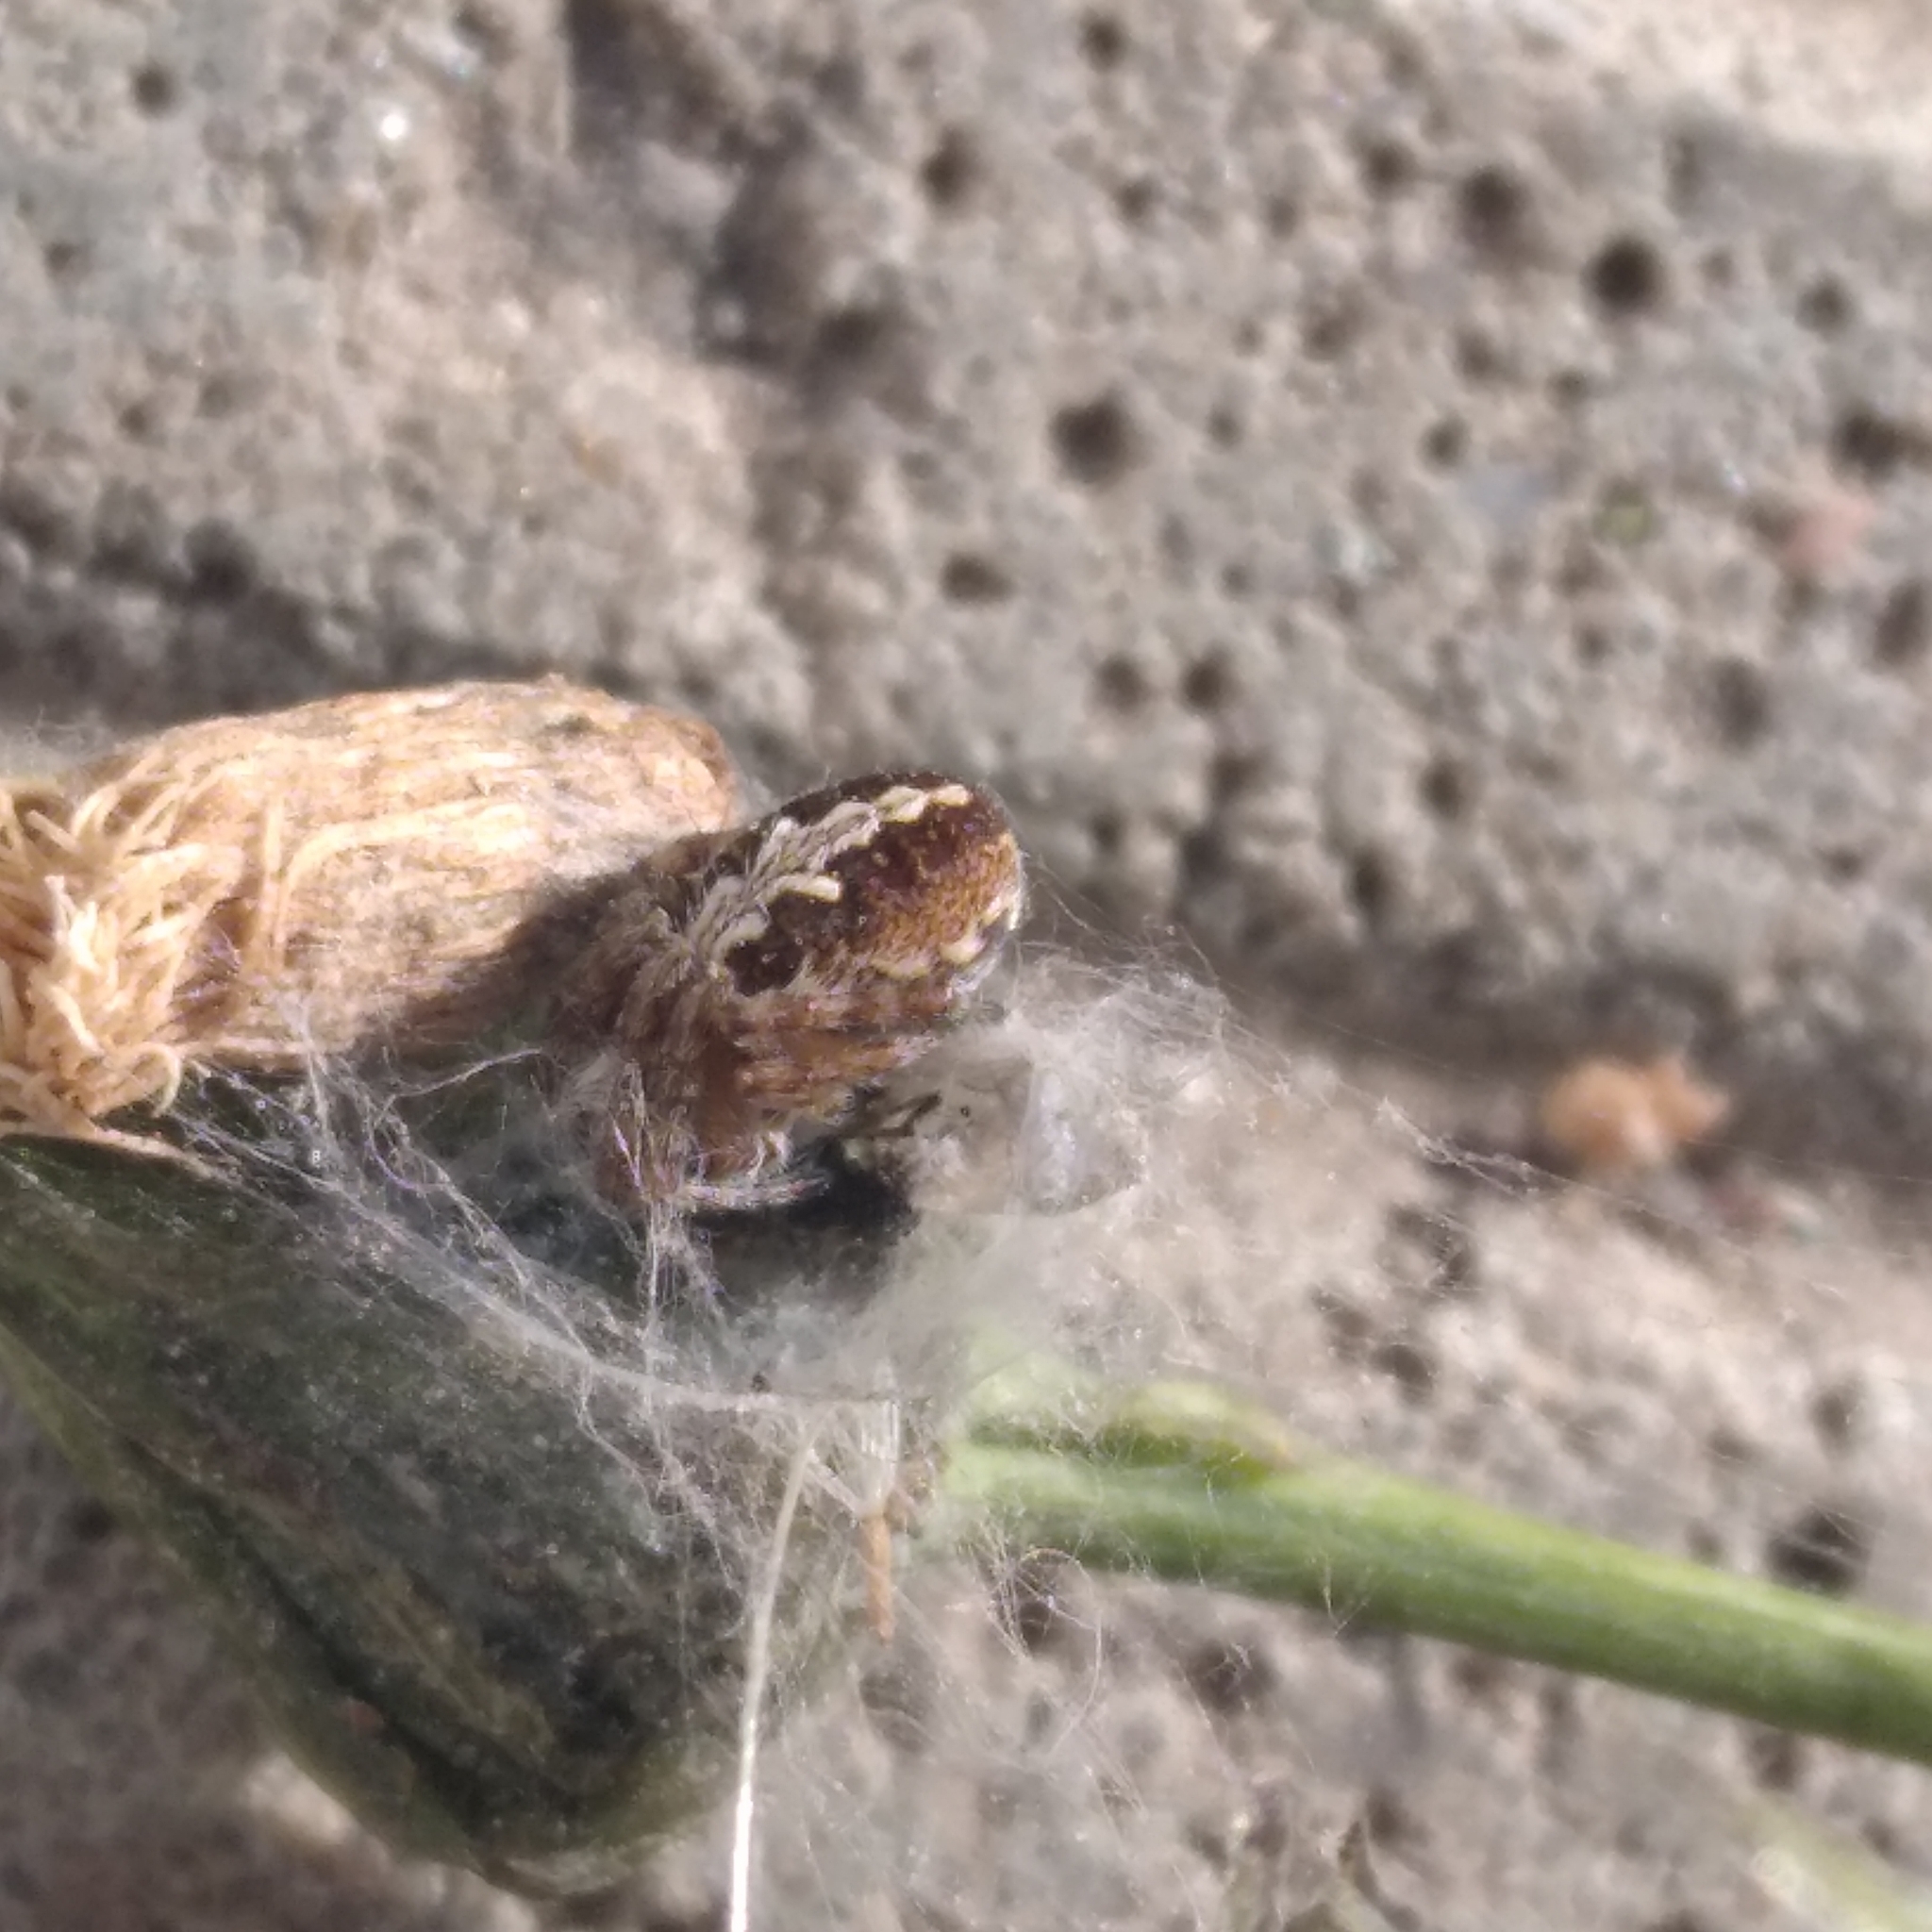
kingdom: Animalia
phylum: Arthropoda
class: Arachnida
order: Araneae
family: Araneidae
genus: Aculepeira
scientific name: Aculepeira ceropegia
